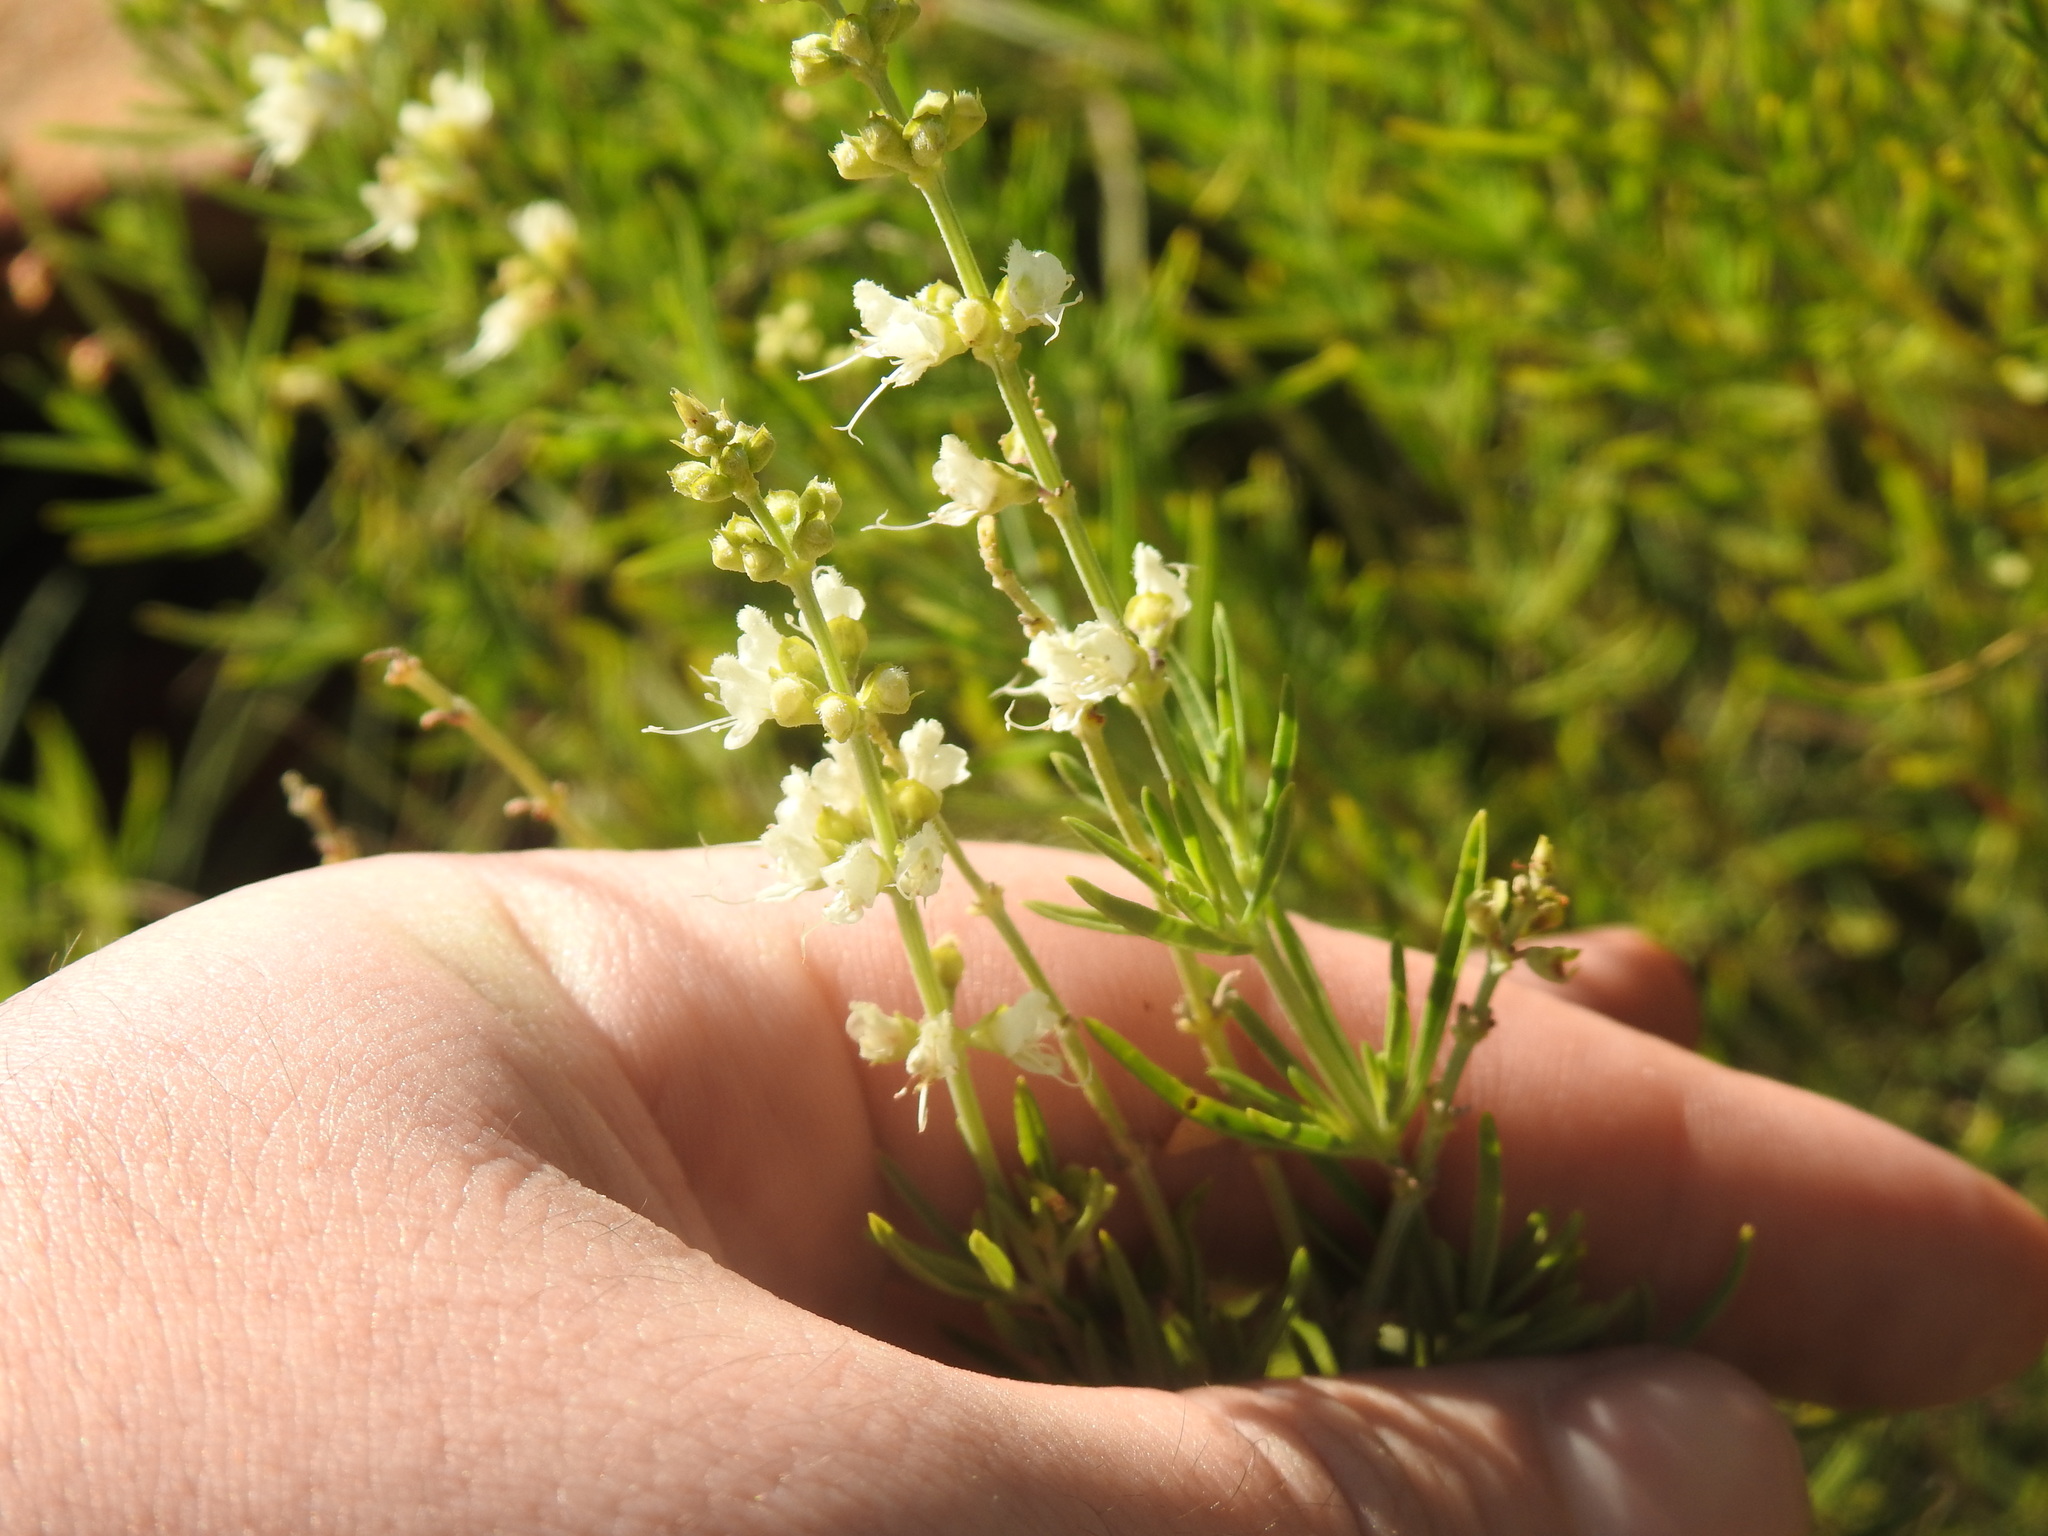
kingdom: Plantae
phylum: Tracheophyta
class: Magnoliopsida
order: Lamiales
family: Lamiaceae
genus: Teucrium
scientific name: Teucrium trifidum
